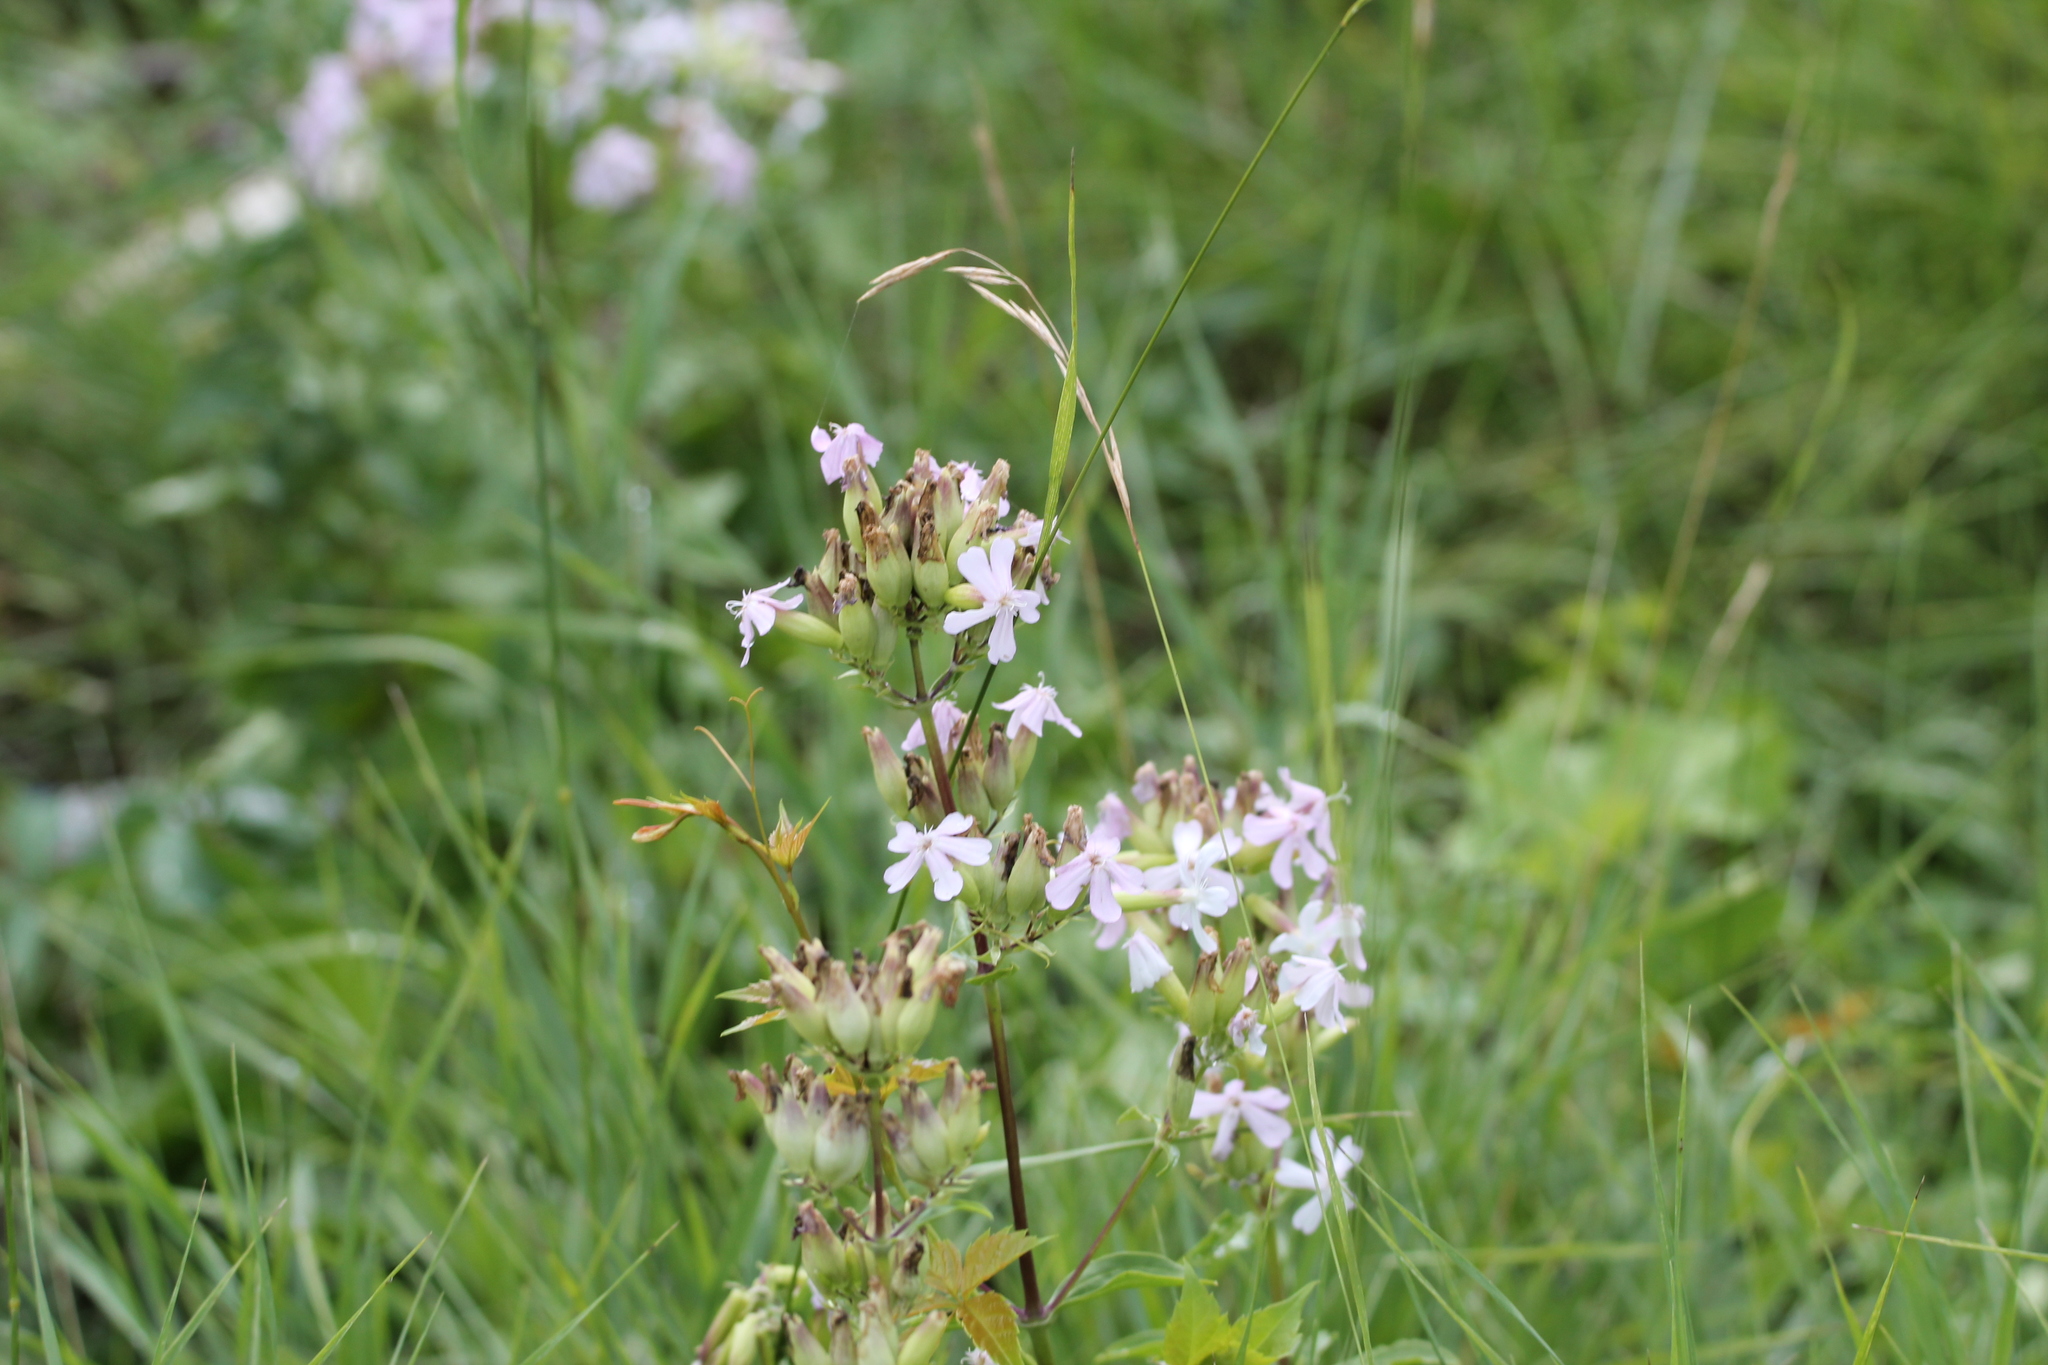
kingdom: Plantae
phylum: Tracheophyta
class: Magnoliopsida
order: Caryophyllales
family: Caryophyllaceae
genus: Saponaria
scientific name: Saponaria officinalis
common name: Soapwort
